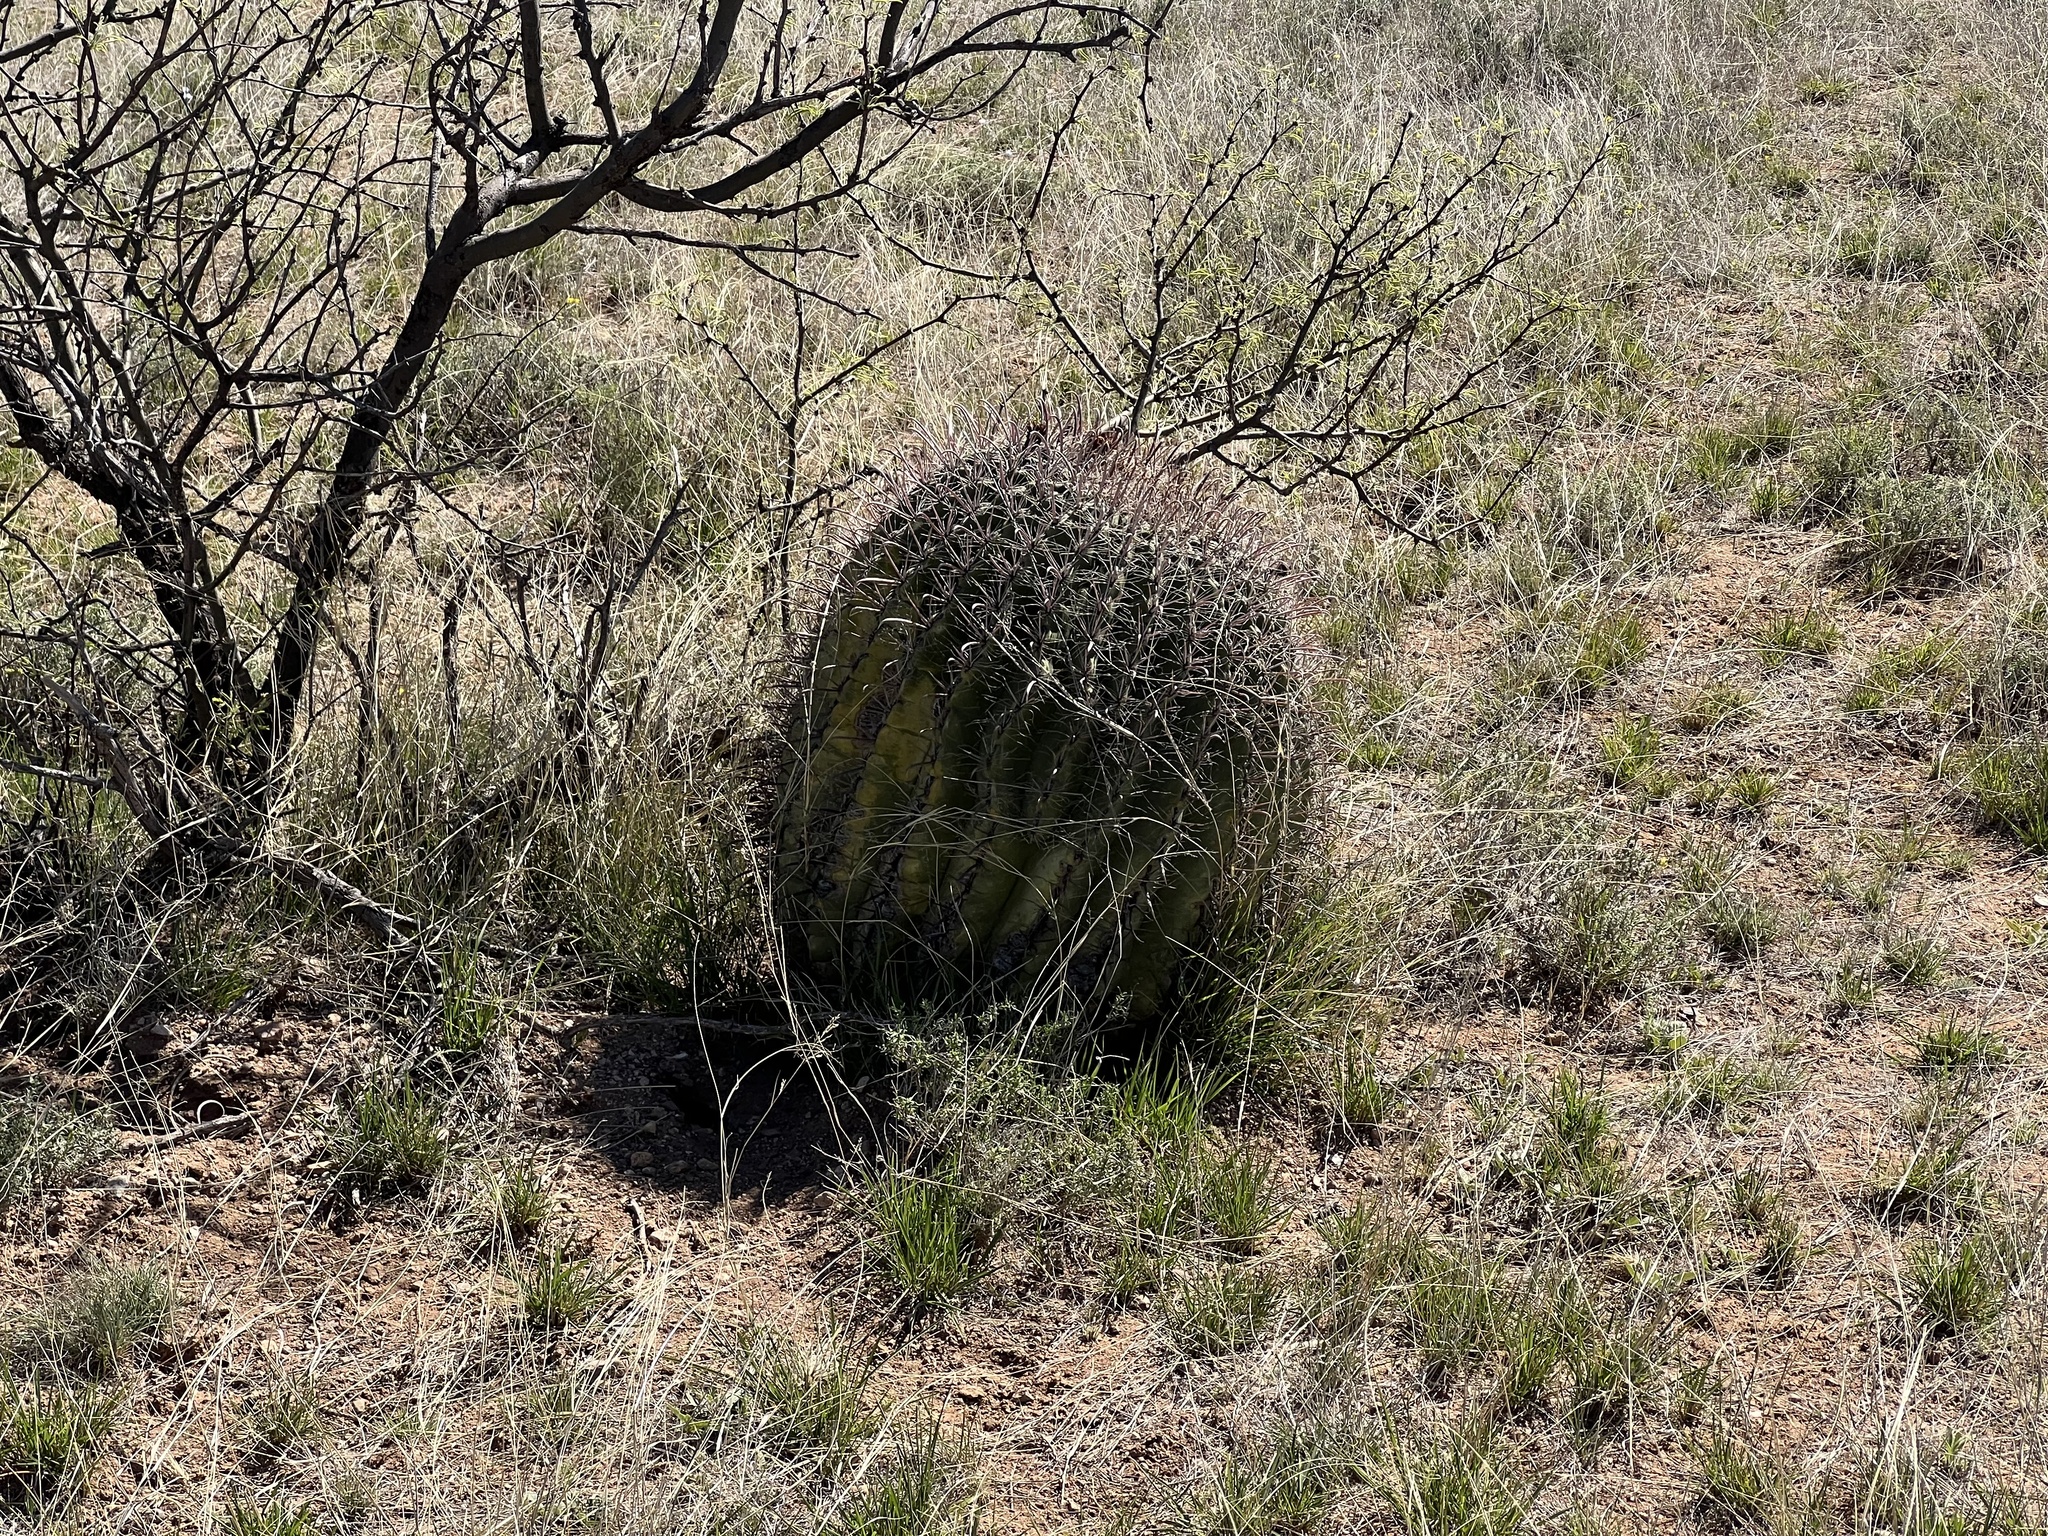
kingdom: Plantae
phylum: Tracheophyta
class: Magnoliopsida
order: Caryophyllales
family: Cactaceae
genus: Ferocactus
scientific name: Ferocactus wislizeni
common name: Candy barrel cactus
